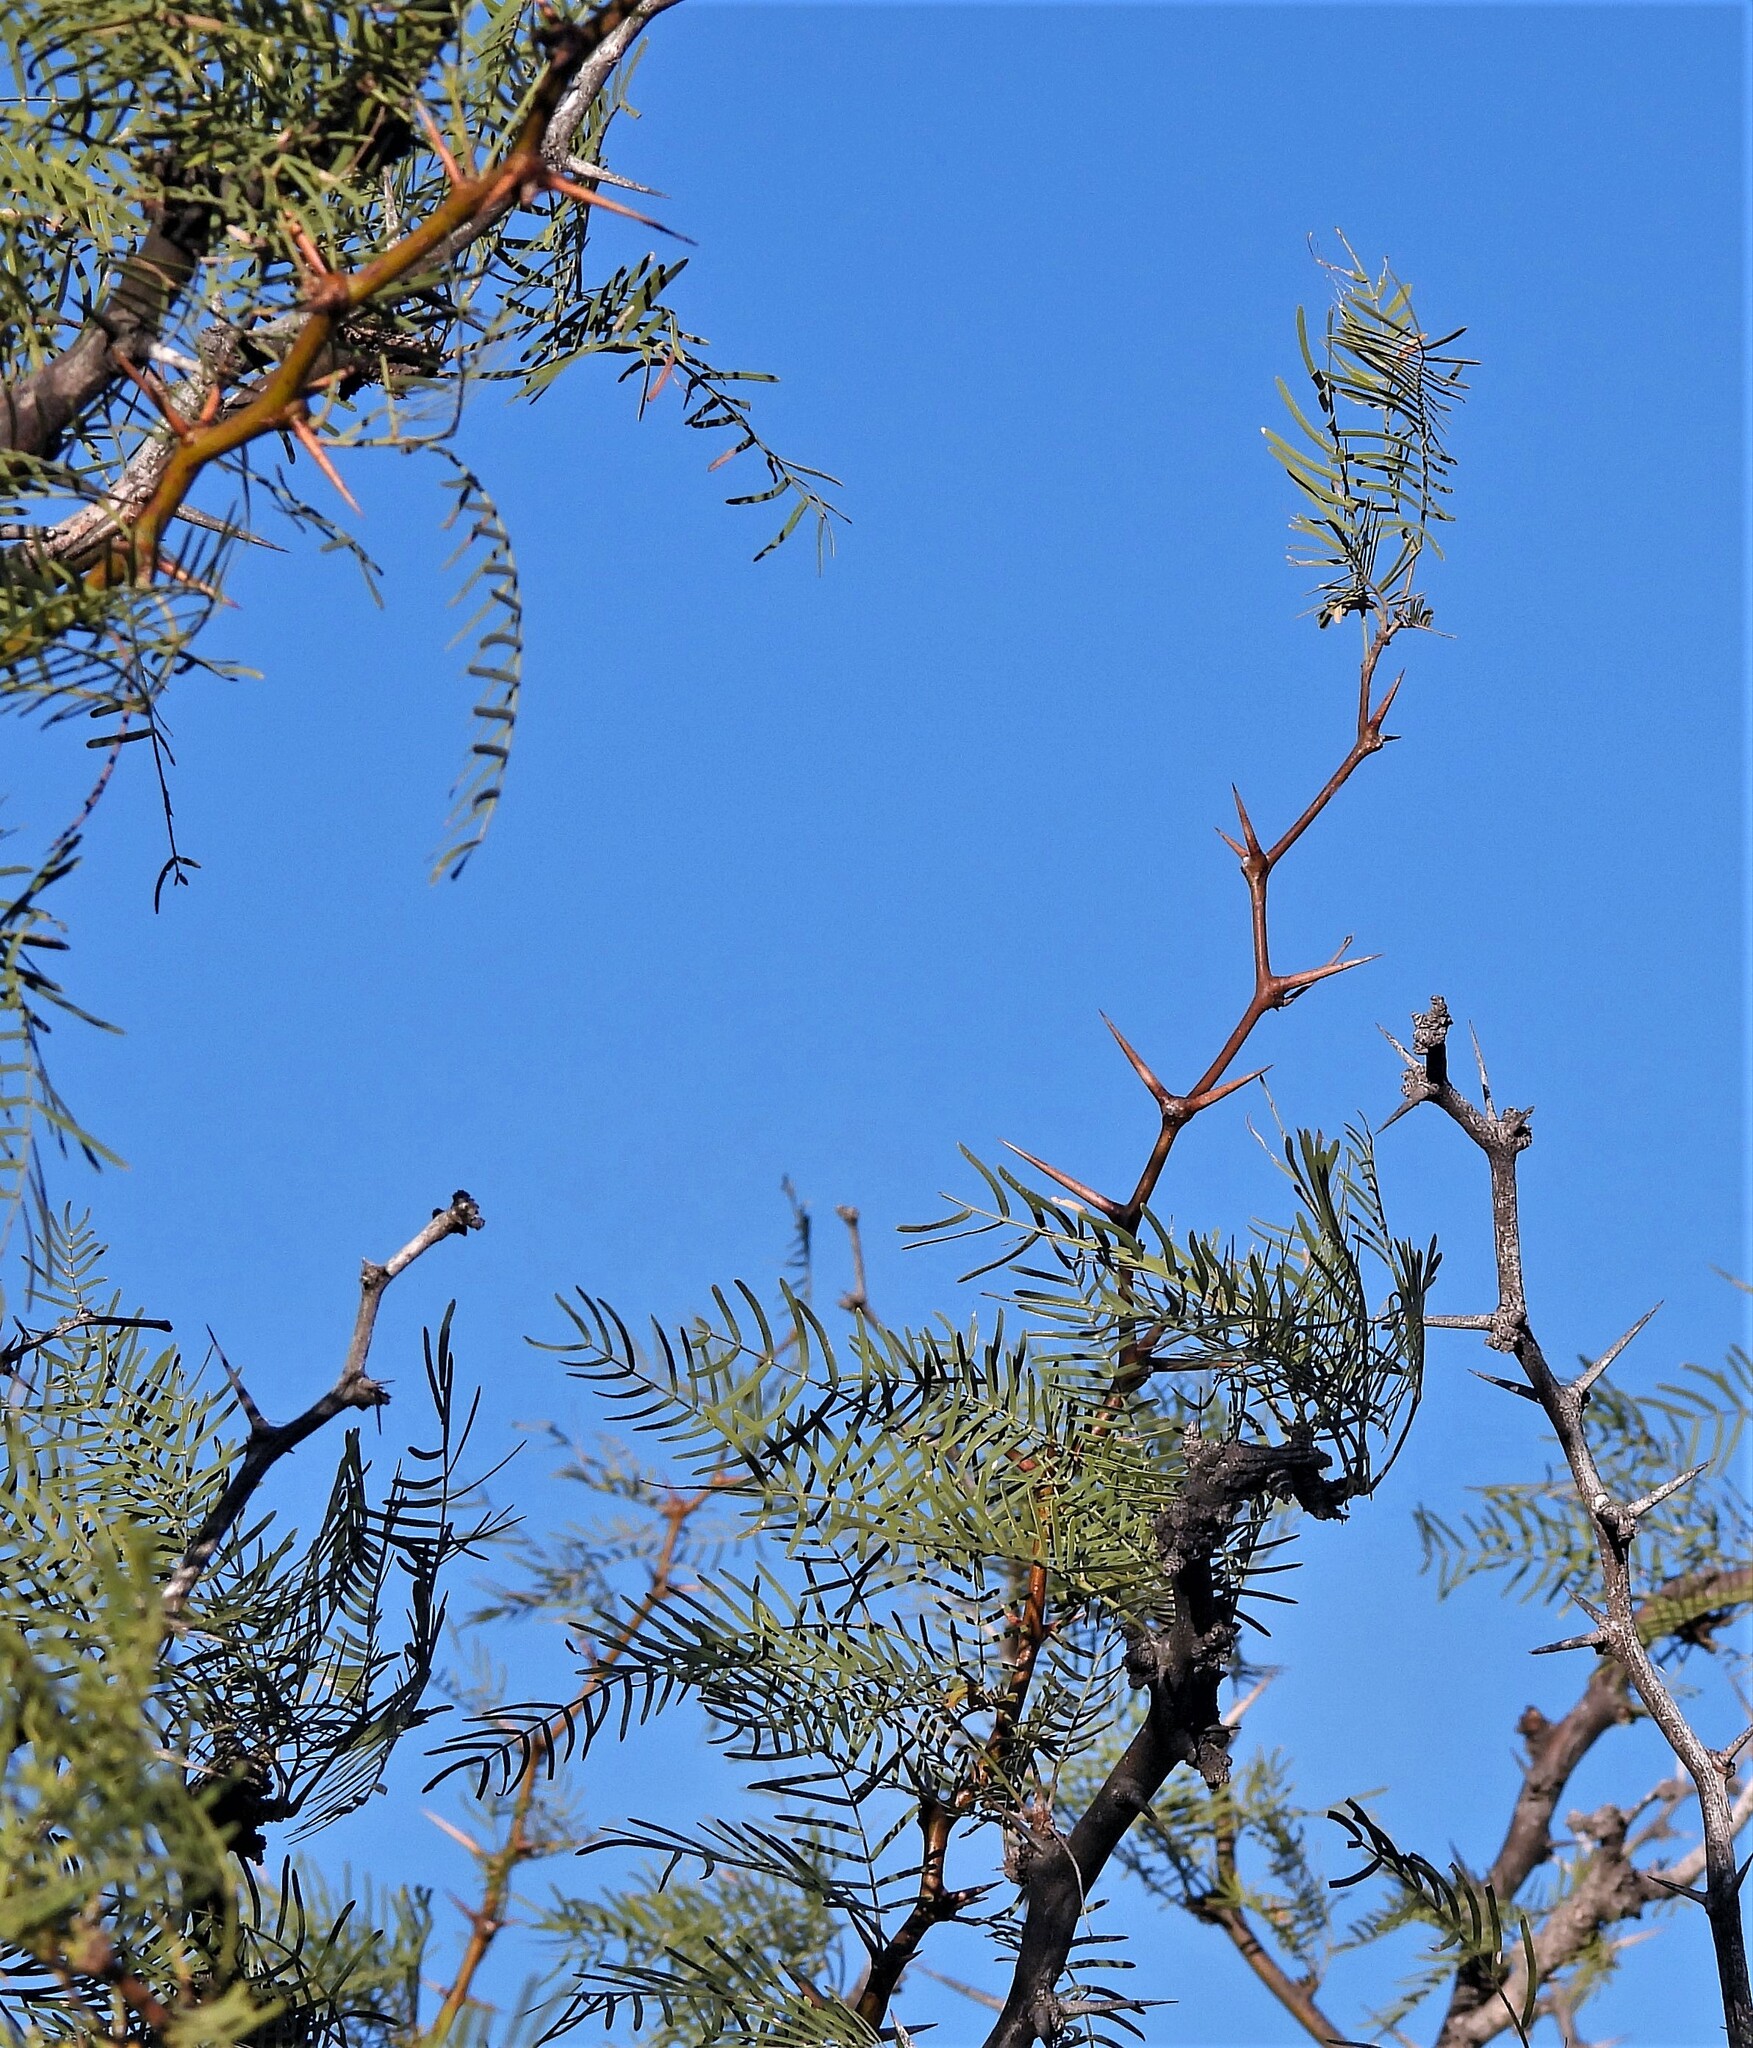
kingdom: Plantae
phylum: Tracheophyta
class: Magnoliopsida
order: Fabales
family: Fabaceae
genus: Prosopis
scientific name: Prosopis chilensis
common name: Chilean algarrobo
